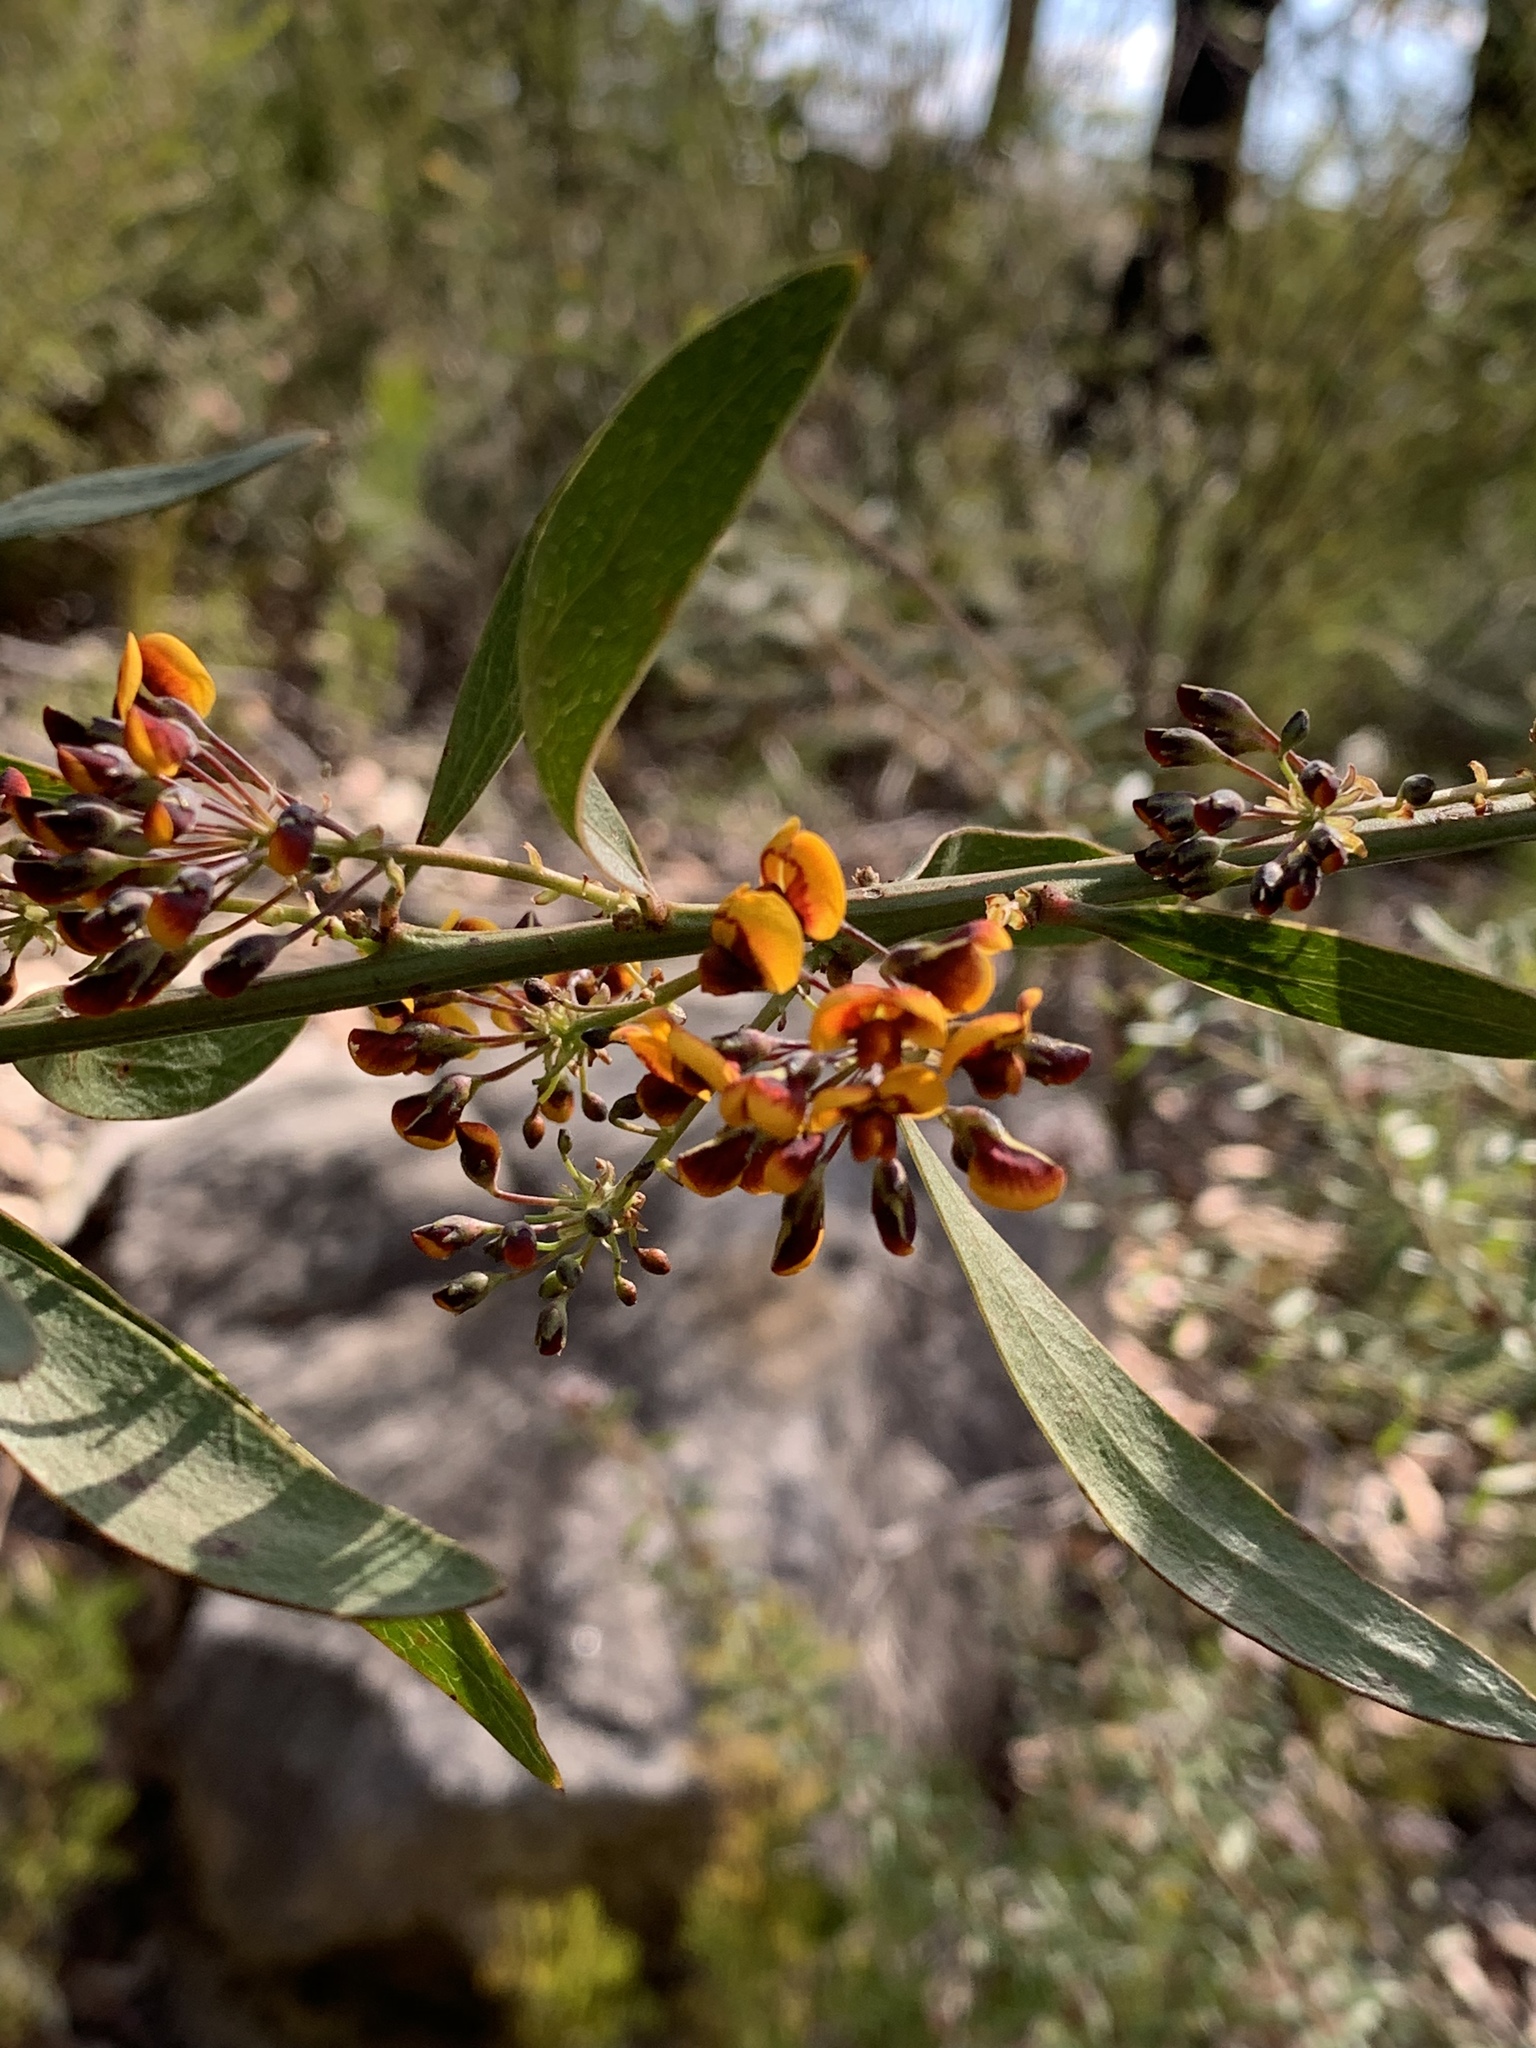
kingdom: Plantae
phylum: Tracheophyta
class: Magnoliopsida
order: Fabales
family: Fabaceae
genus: Daviesia
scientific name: Daviesia corymbosa
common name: Narrow-leaf bitter-pea
